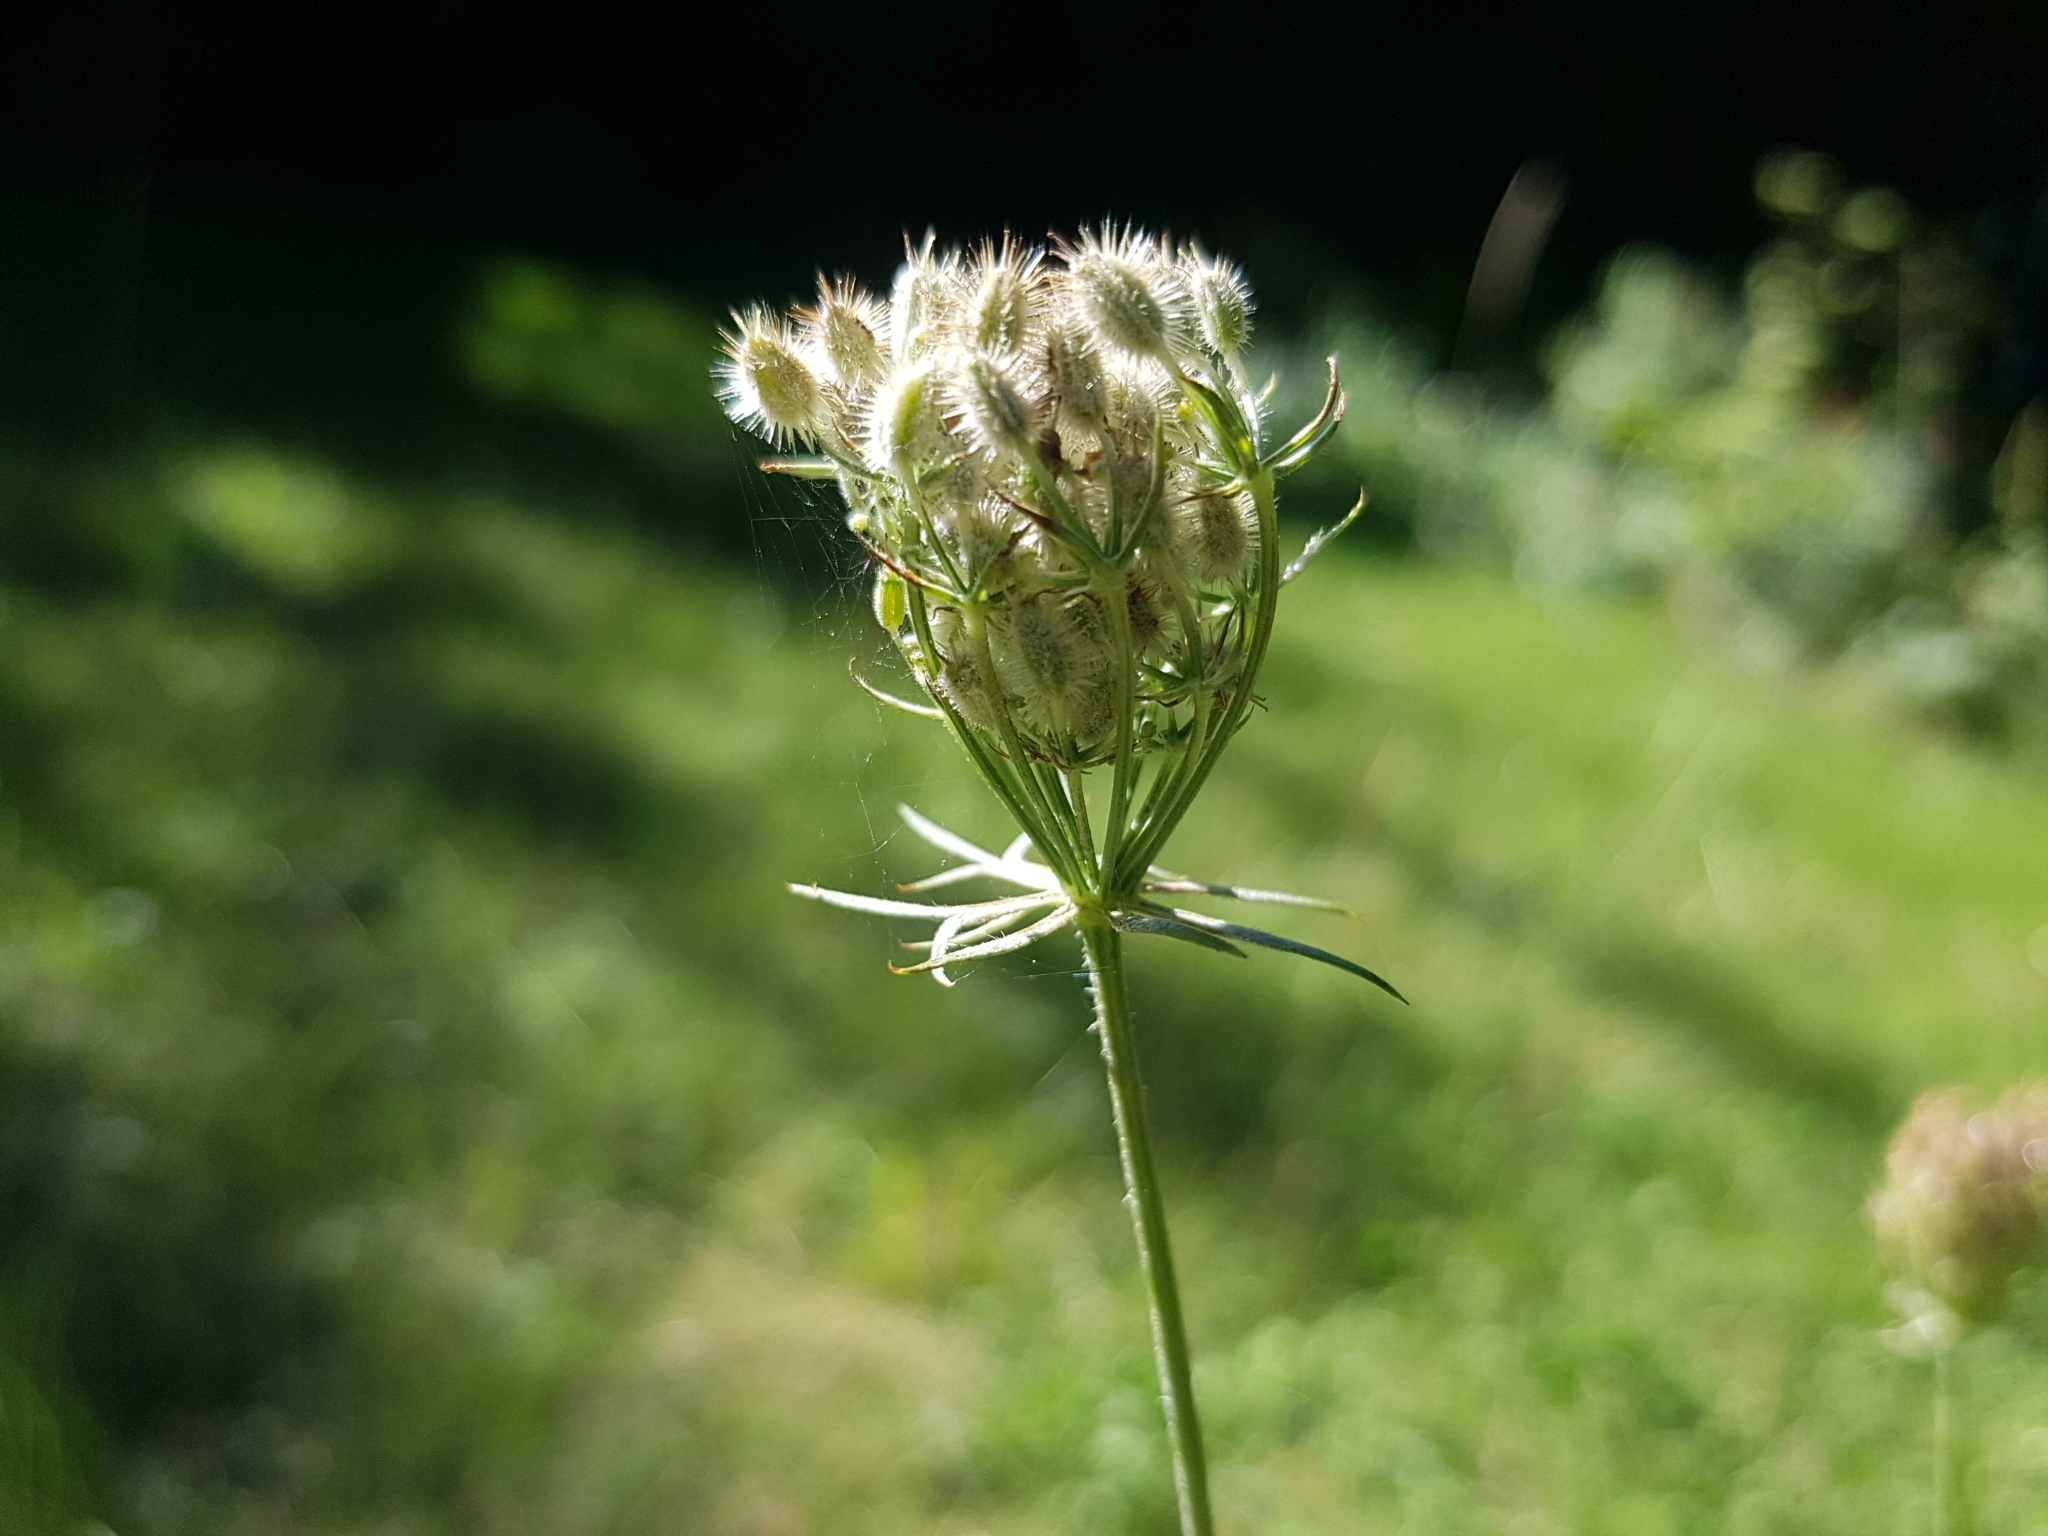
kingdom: Plantae
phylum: Tracheophyta
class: Magnoliopsida
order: Apiales
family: Apiaceae
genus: Daucus
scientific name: Daucus carota
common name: Wild carrot
